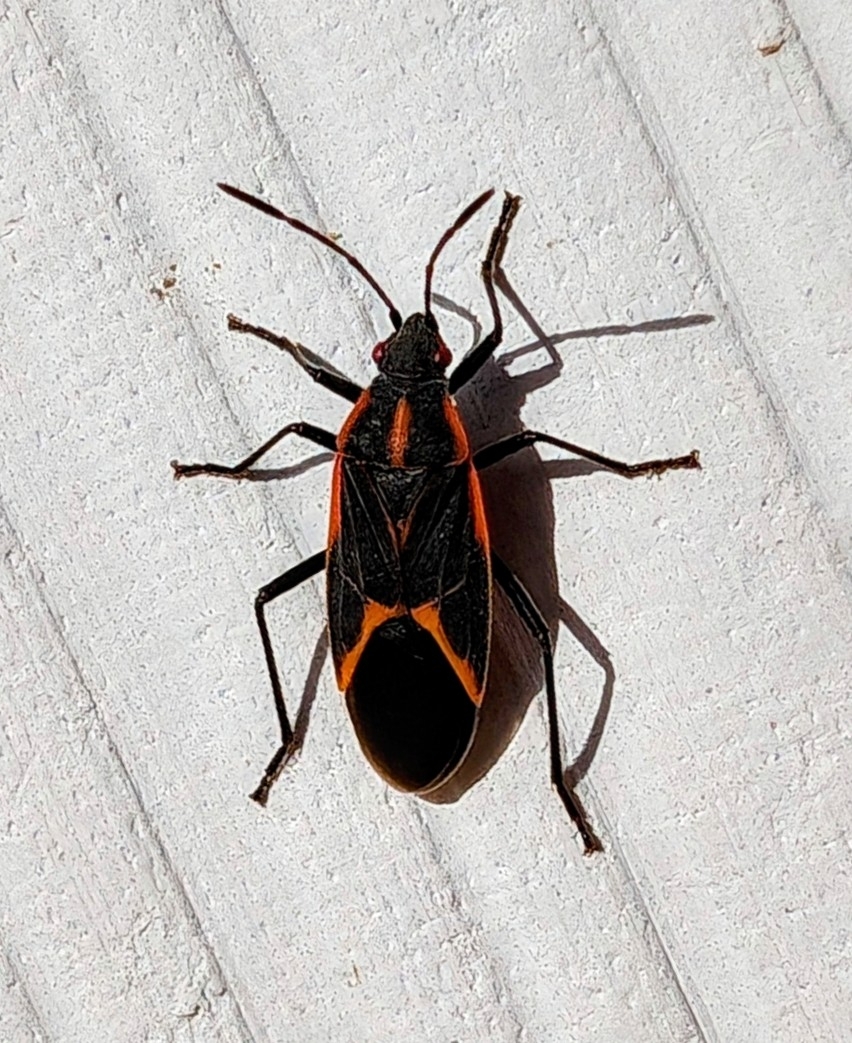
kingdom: Animalia
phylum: Arthropoda
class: Insecta
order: Hemiptera
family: Rhopalidae
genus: Boisea
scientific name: Boisea trivittata
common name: Boxelder bug
